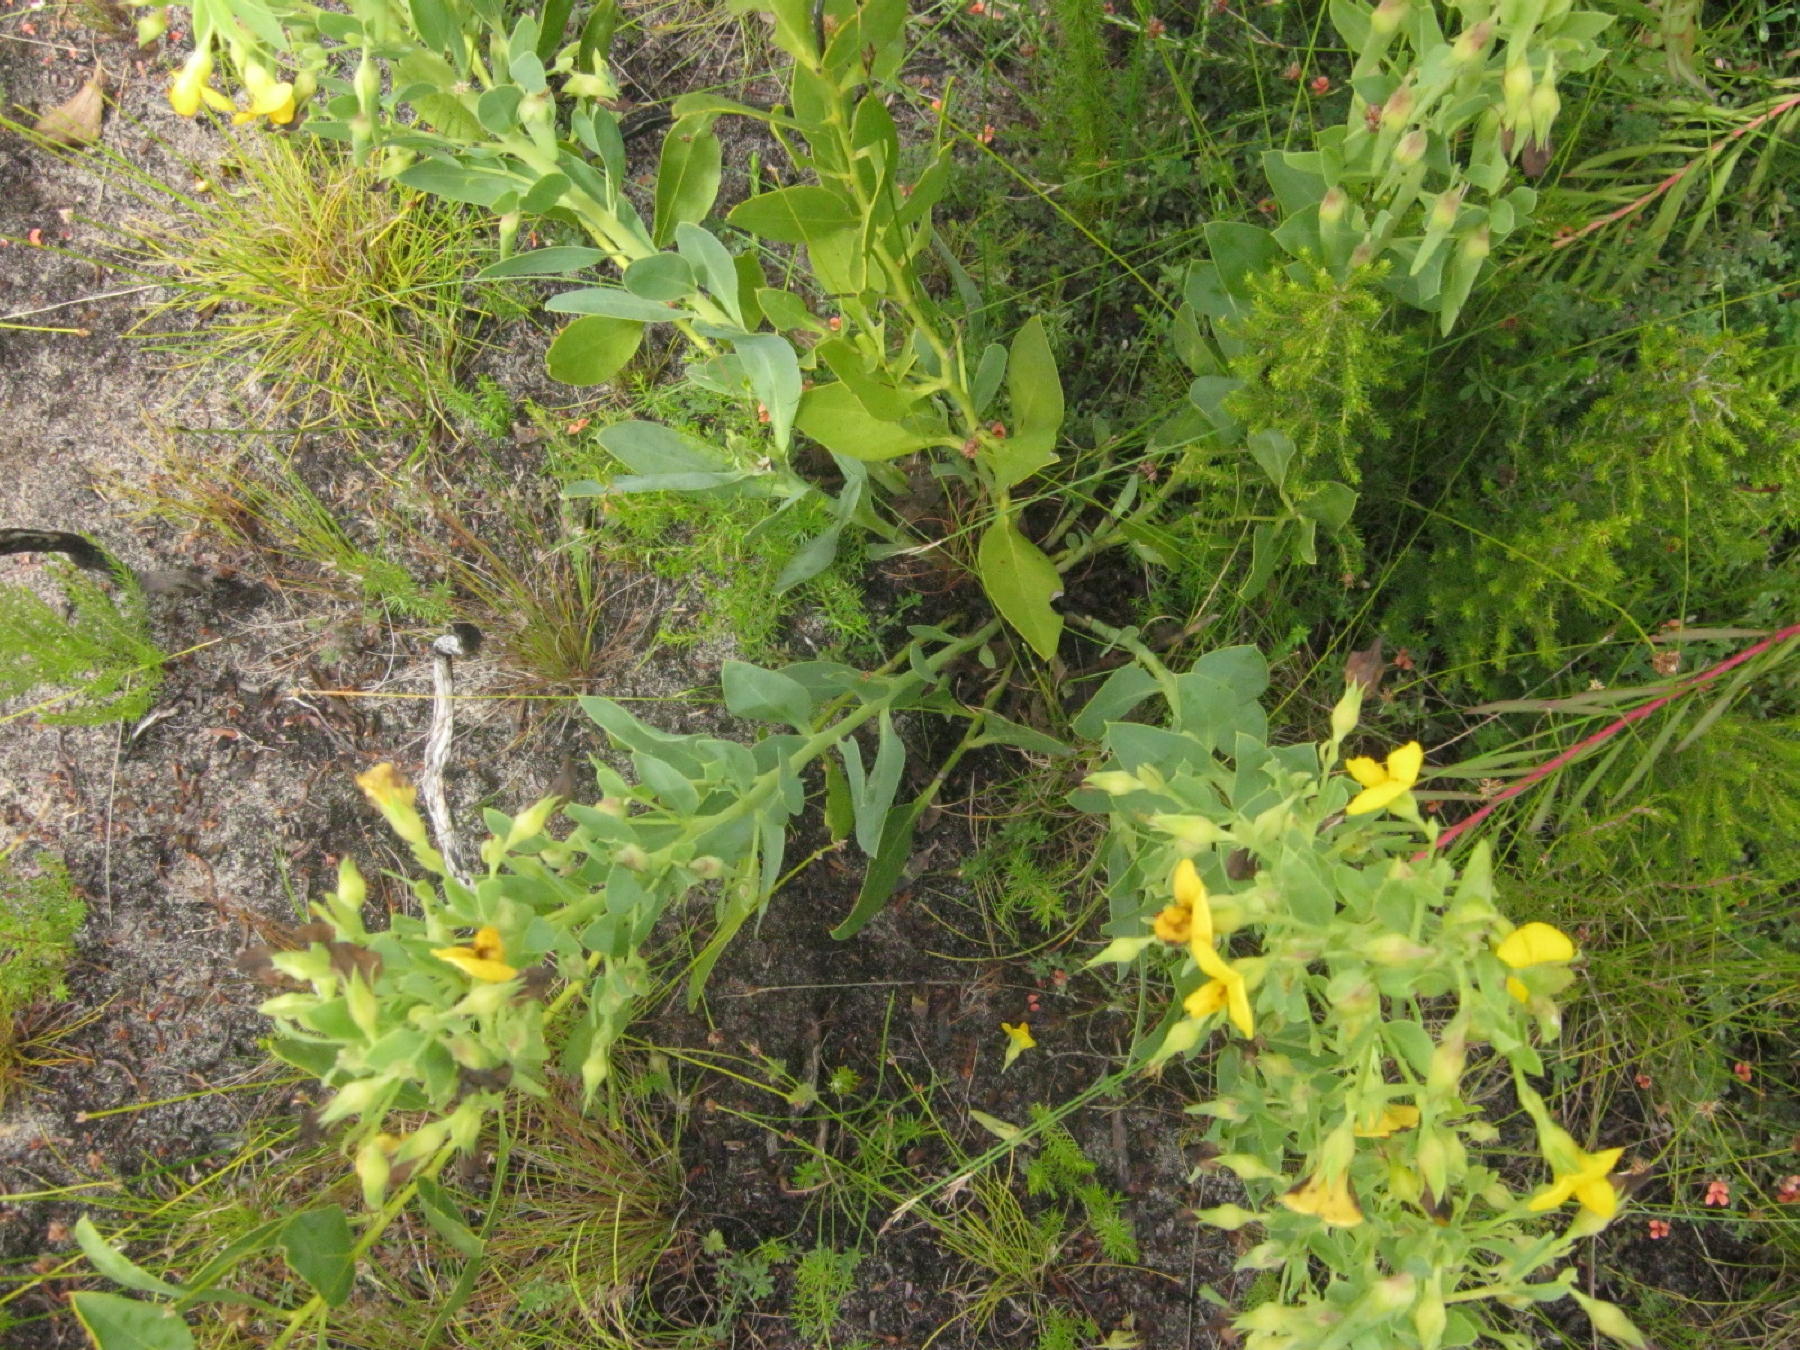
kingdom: Plantae
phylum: Tracheophyta
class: Magnoliopsida
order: Fabales
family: Fabaceae
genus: Rafnia
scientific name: Rafnia racemosa
